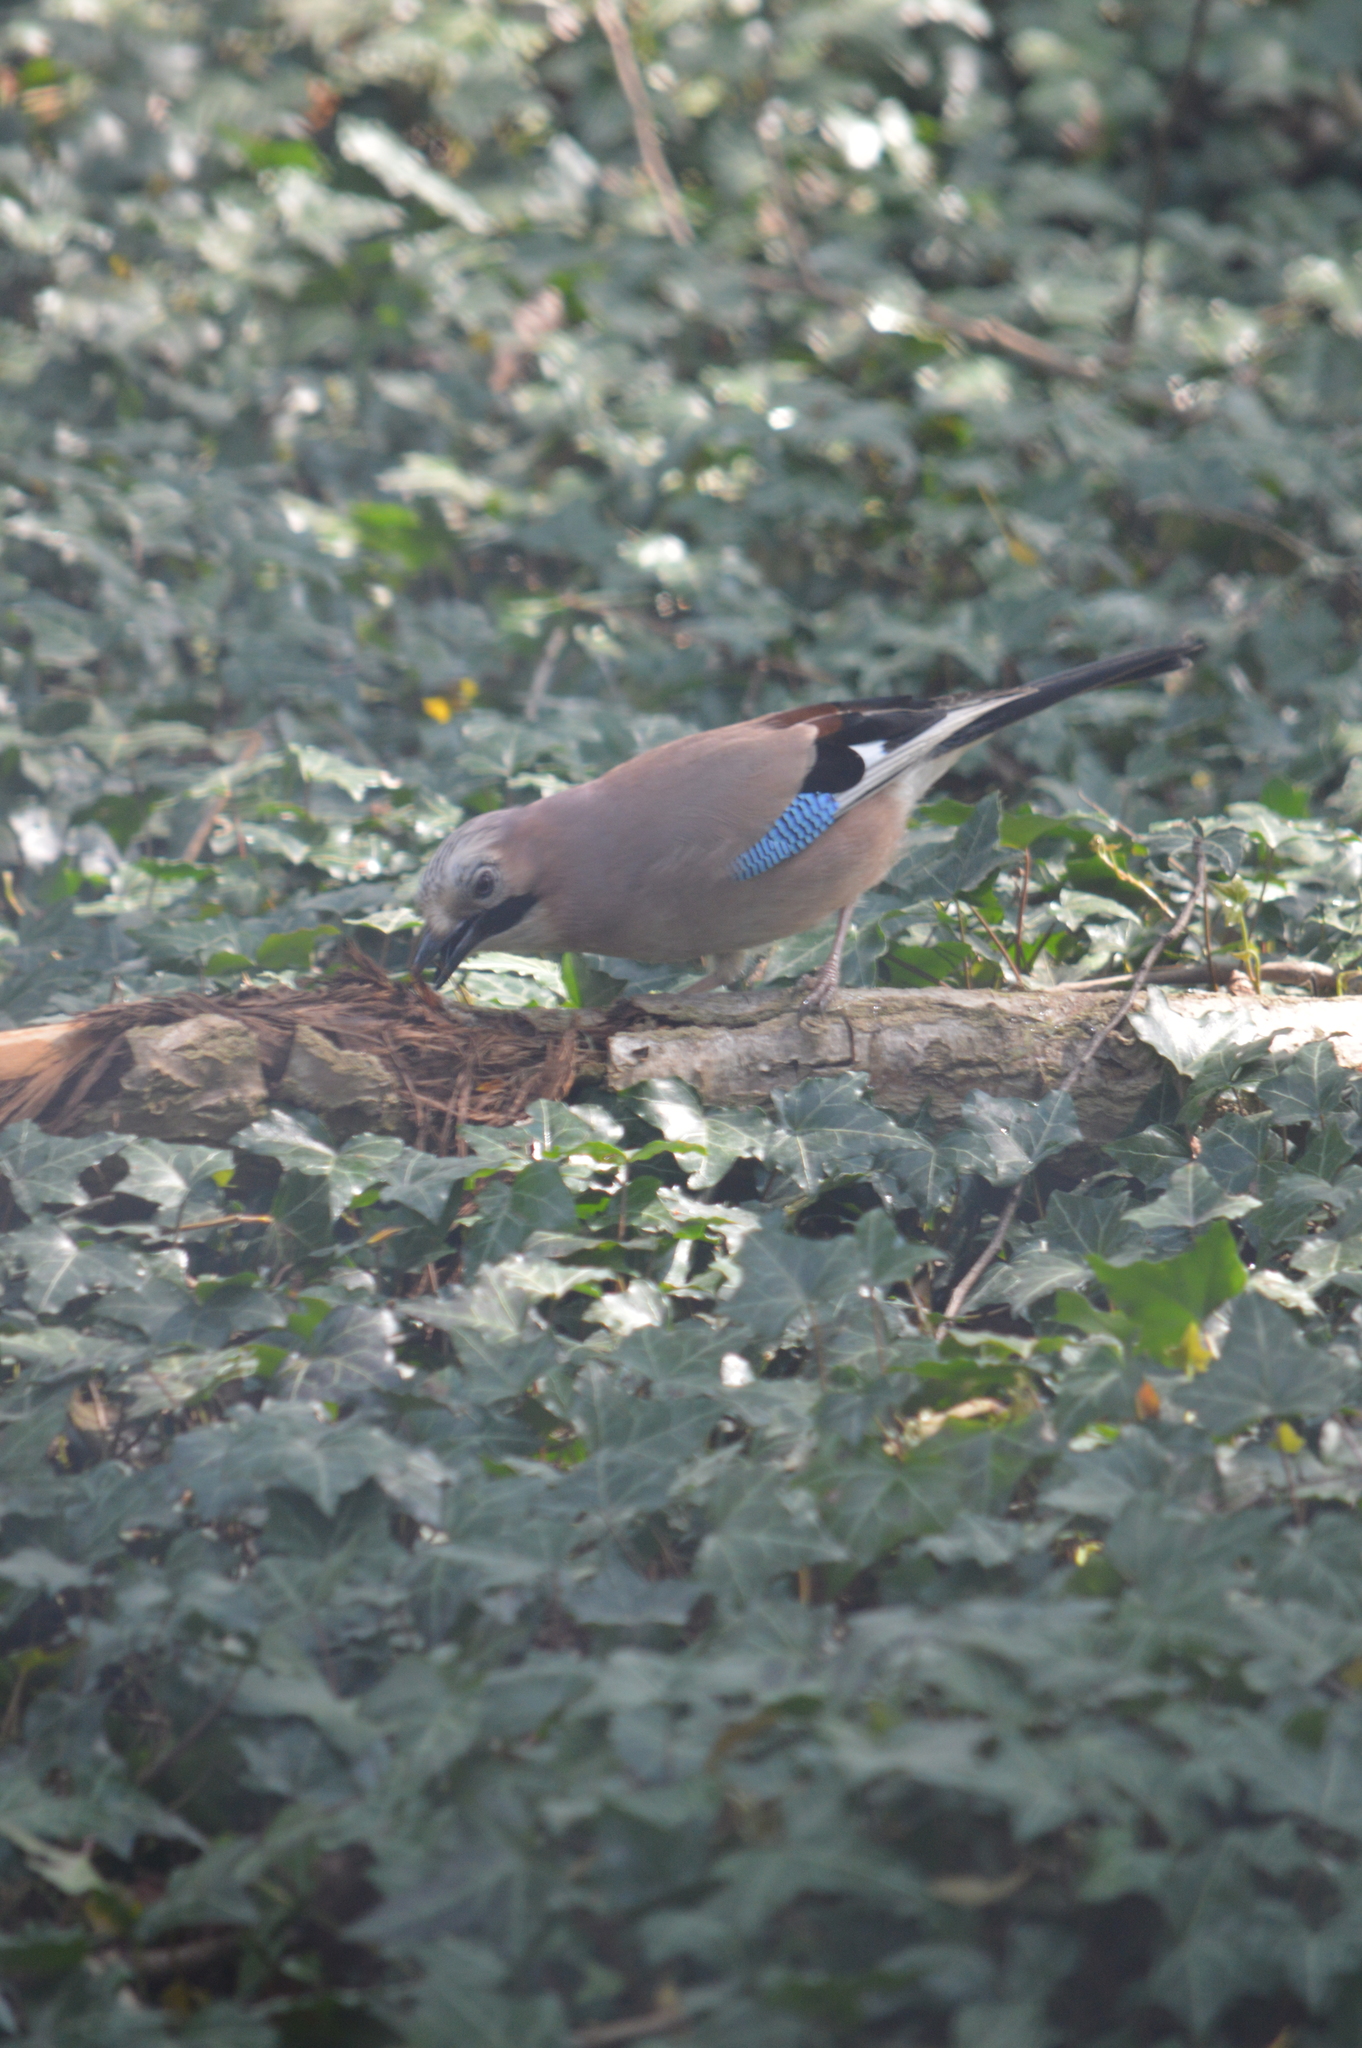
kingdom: Animalia
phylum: Chordata
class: Aves
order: Passeriformes
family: Corvidae
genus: Garrulus
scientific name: Garrulus glandarius
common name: Eurasian jay
